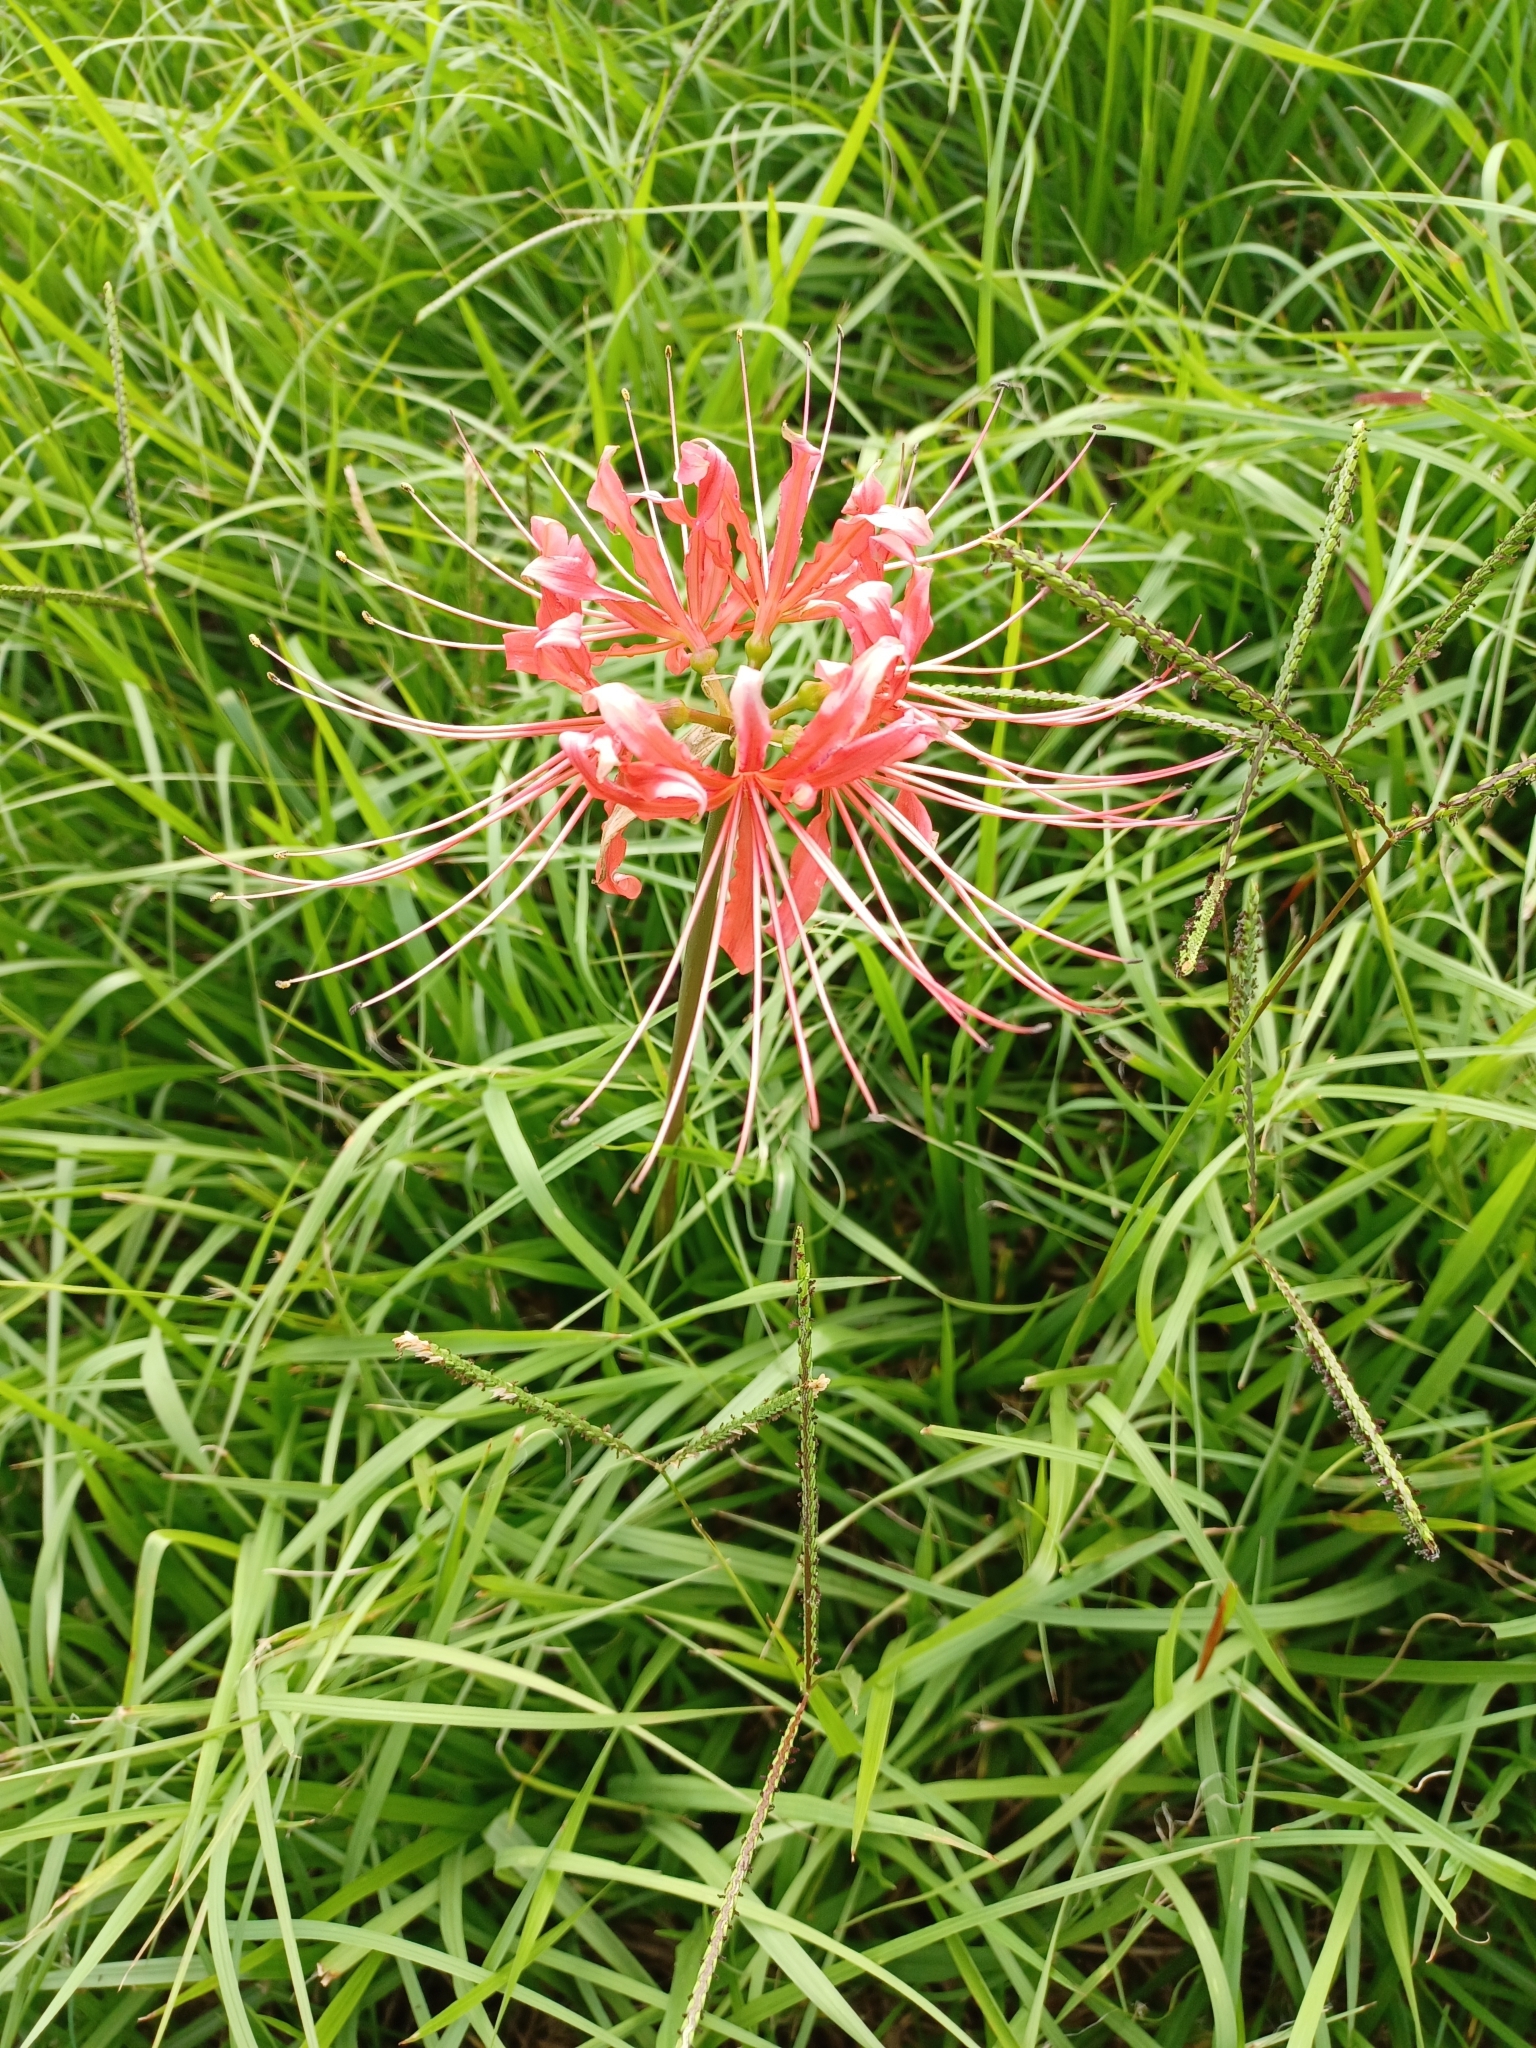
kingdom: Plantae
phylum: Tracheophyta
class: Liliopsida
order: Asparagales
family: Amaryllidaceae
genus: Lycoris
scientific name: Lycoris radiata
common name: Red spider lily
